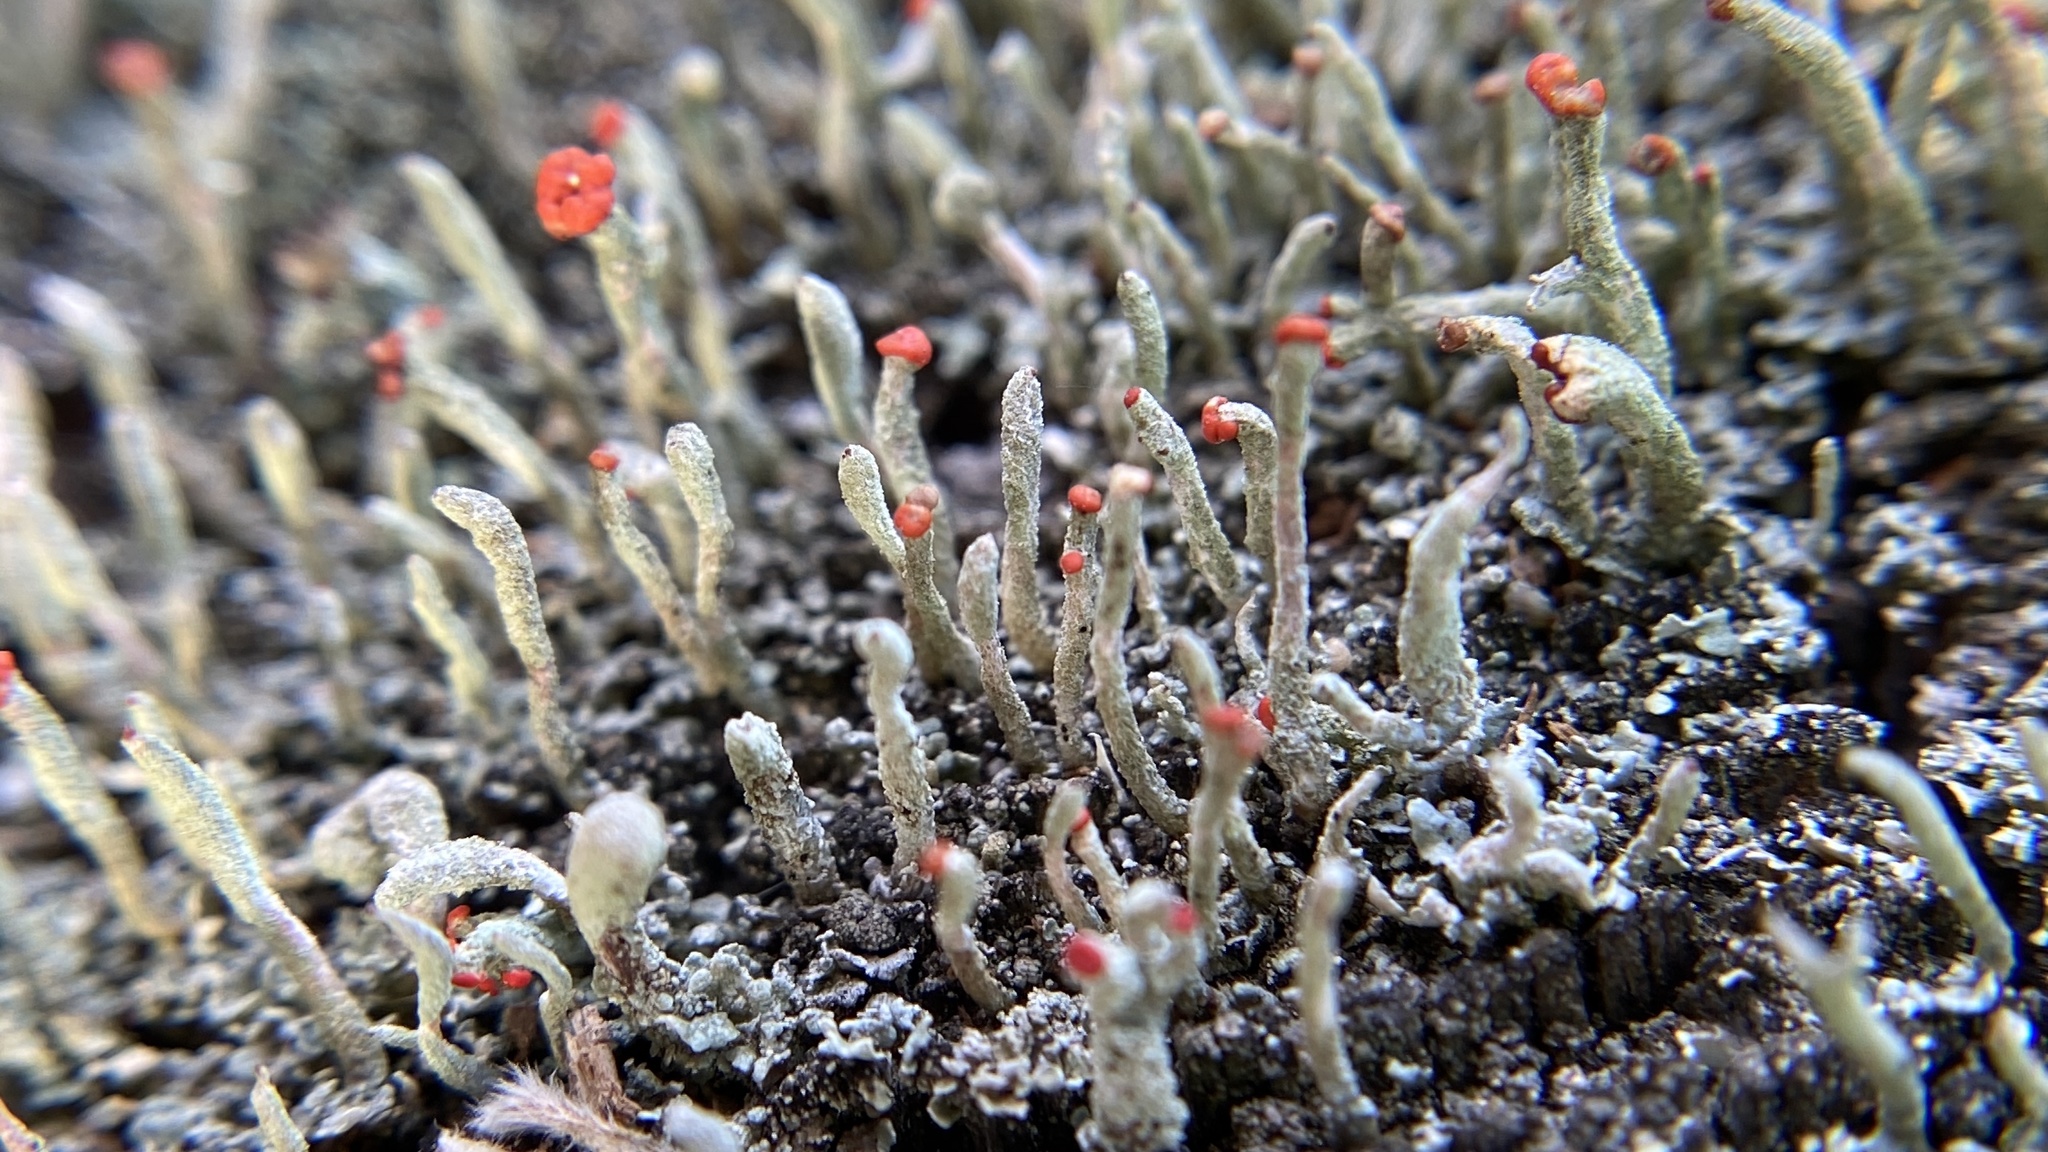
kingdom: Fungi
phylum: Ascomycota
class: Lecanoromycetes
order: Lecanorales
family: Cladoniaceae
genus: Cladonia
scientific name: Cladonia macilenta
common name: Lipstick powderhorn
